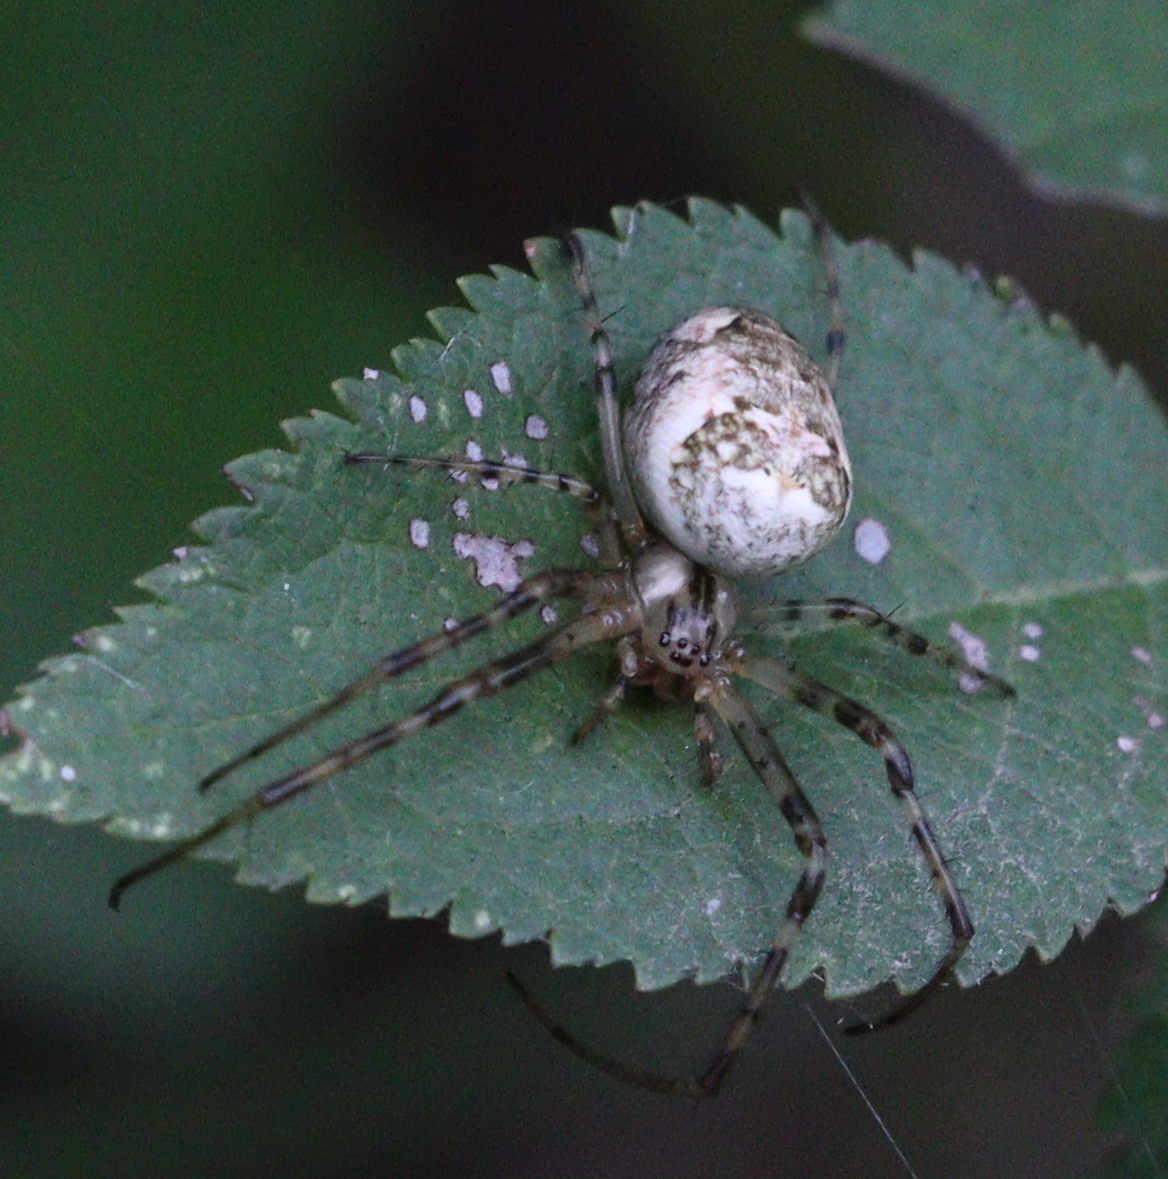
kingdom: Animalia
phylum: Arthropoda
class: Arachnida
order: Araneae
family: Tetragnathidae
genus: Metellina
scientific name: Metellina segmentata
